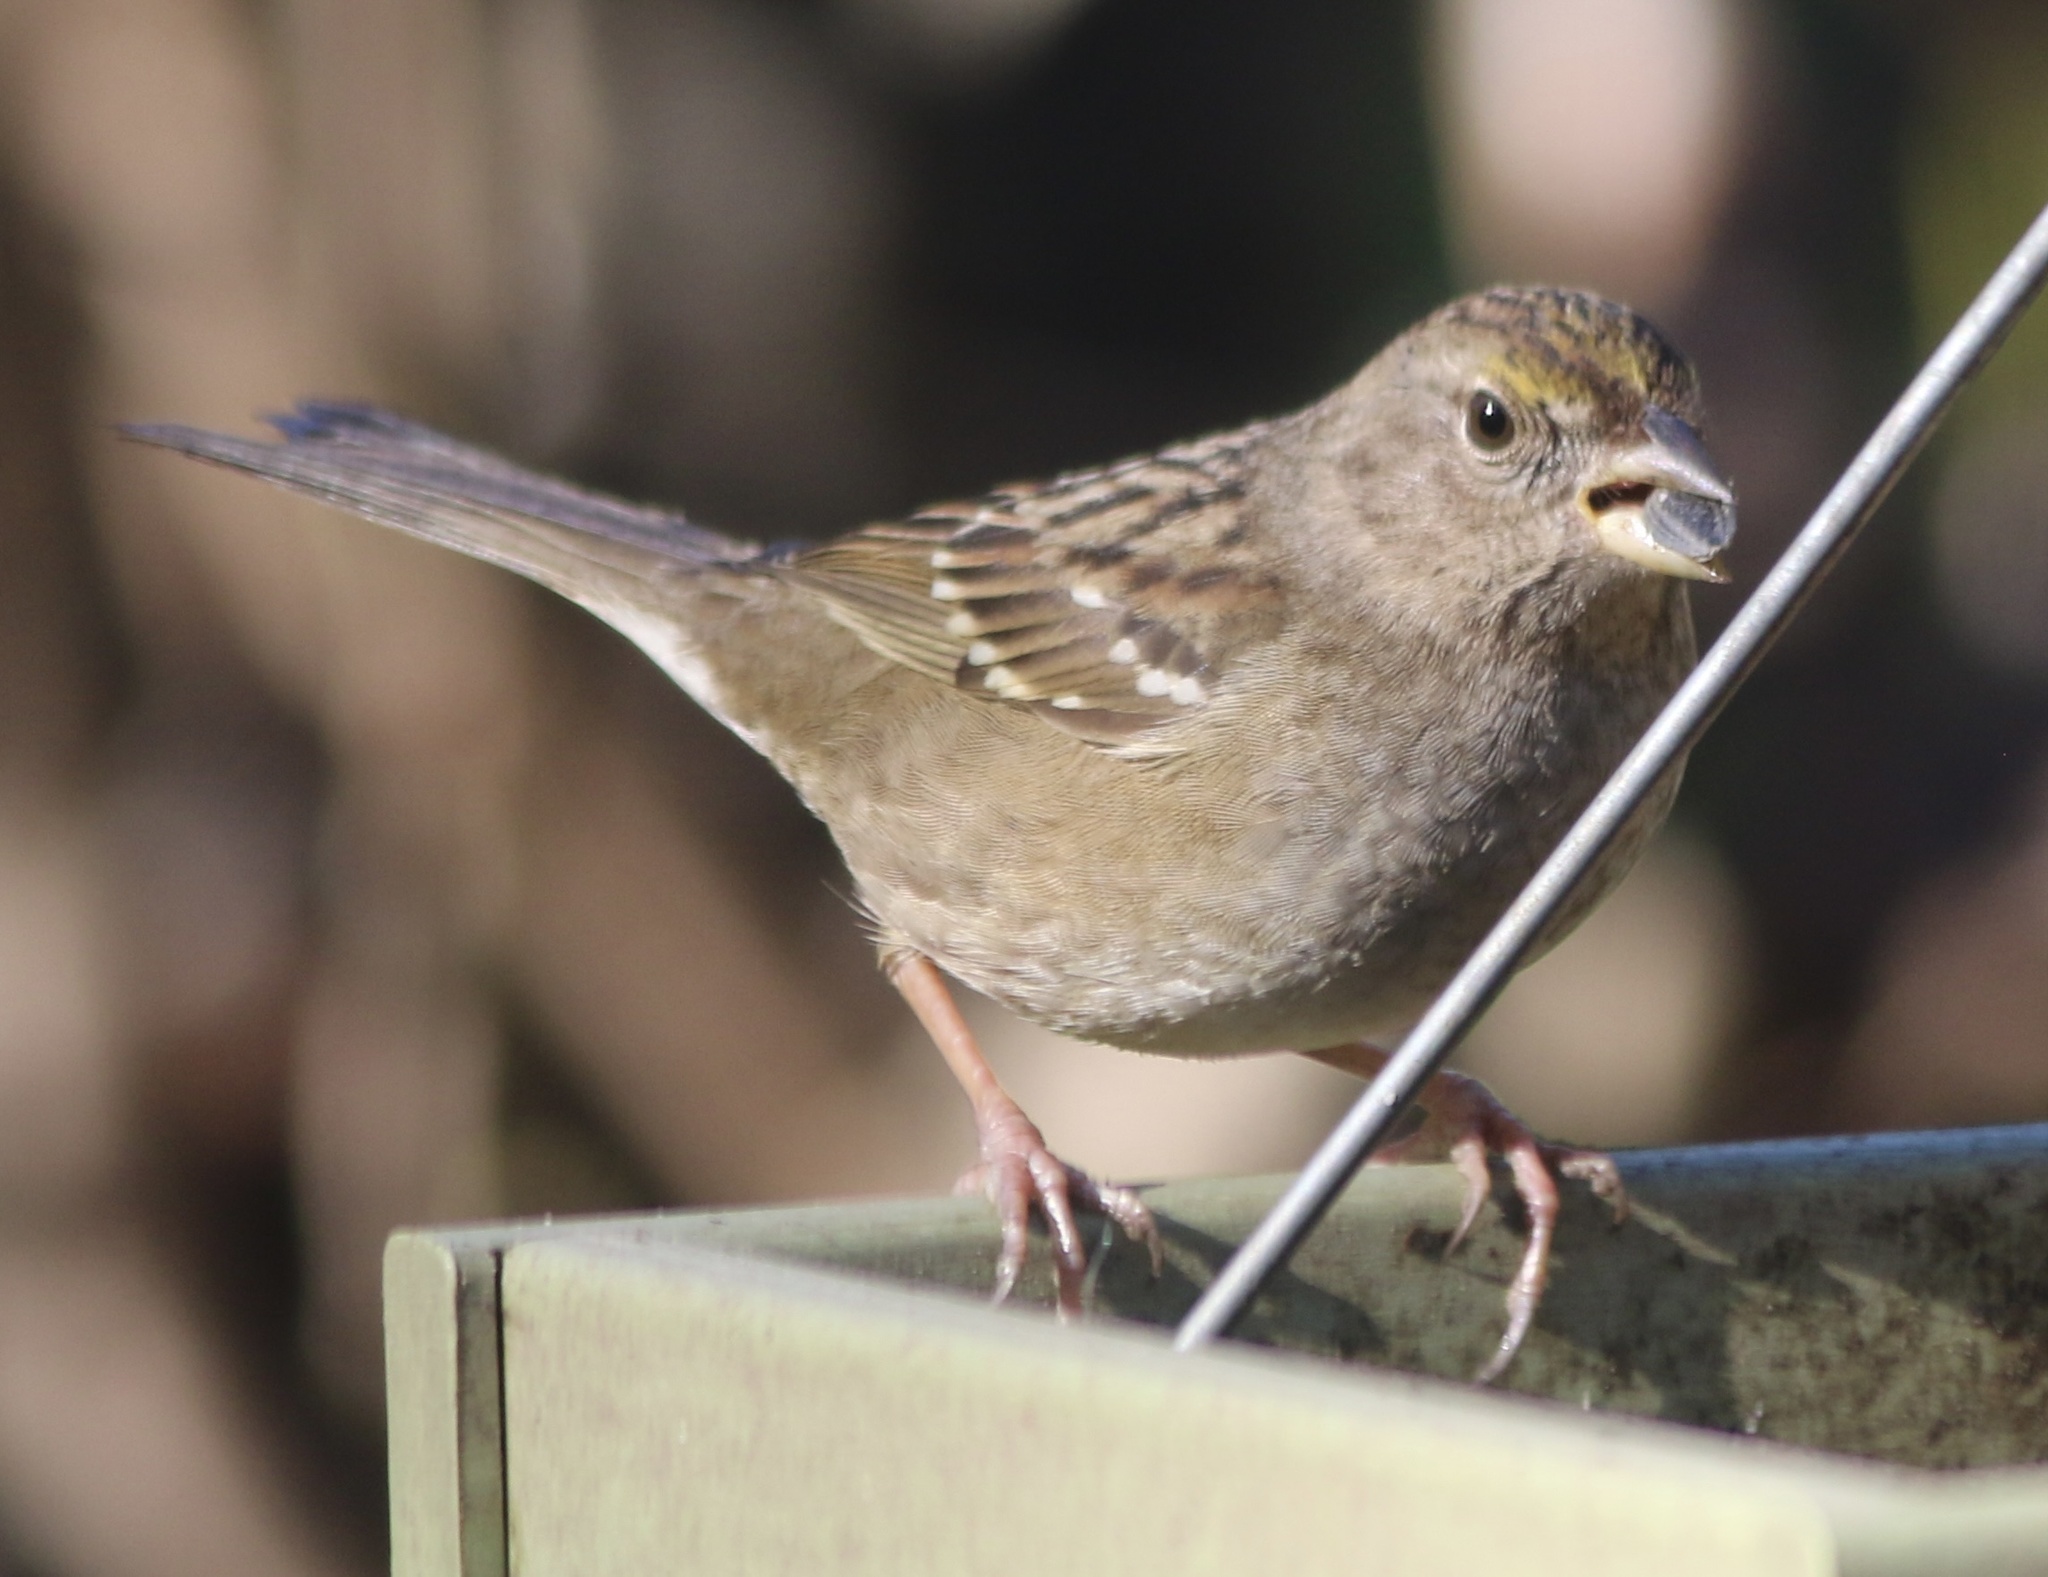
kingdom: Animalia
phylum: Chordata
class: Aves
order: Passeriformes
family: Passerellidae
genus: Zonotrichia
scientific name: Zonotrichia atricapilla
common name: Golden-crowned sparrow
